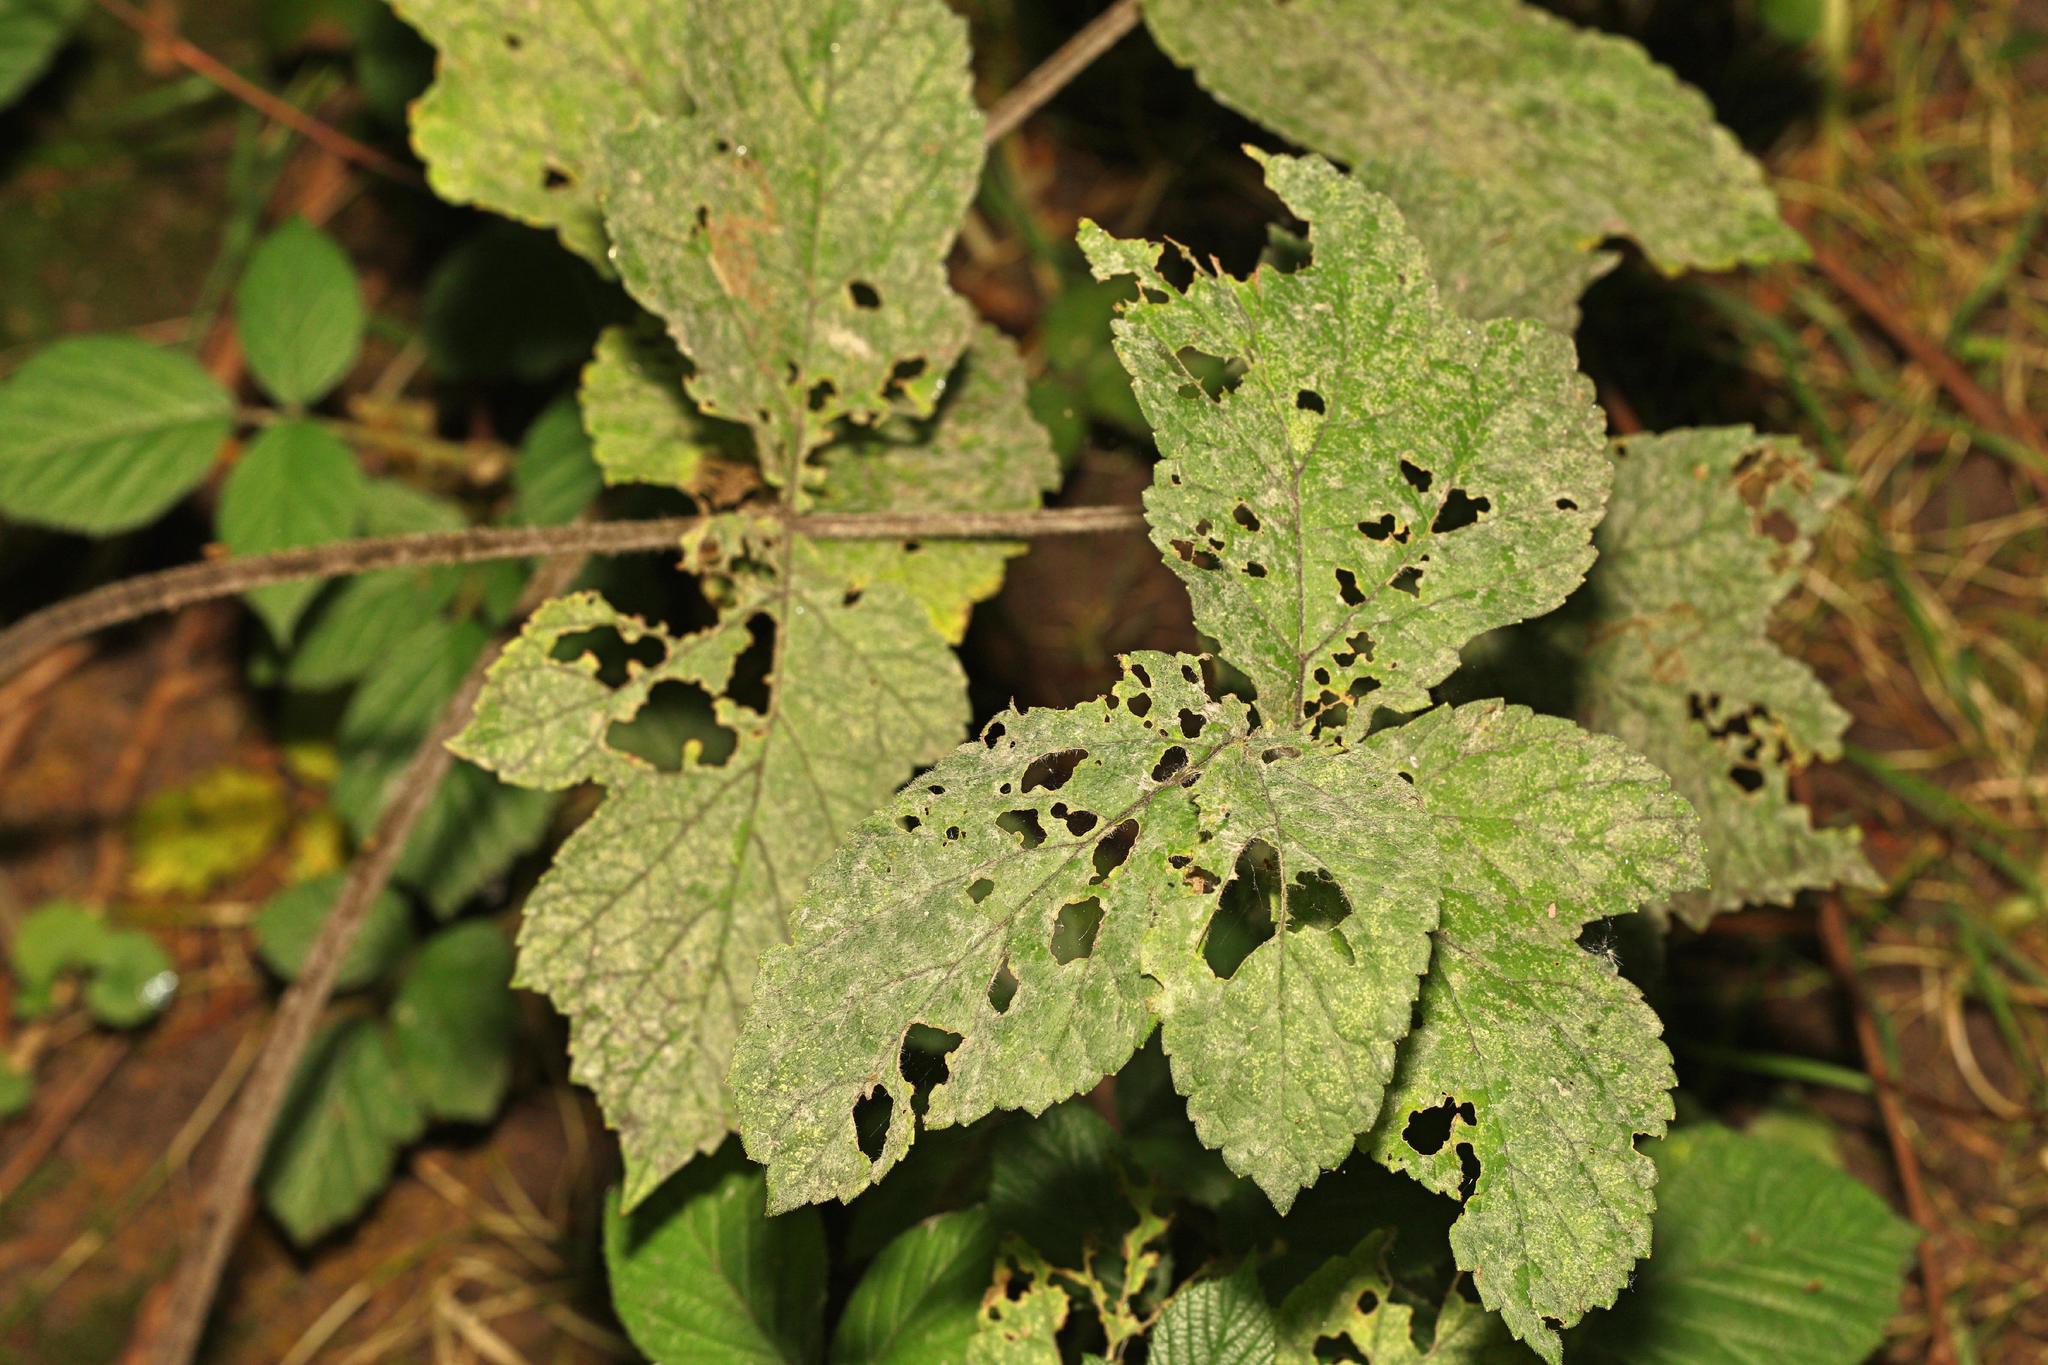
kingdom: Fungi
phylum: Ascomycota
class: Leotiomycetes
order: Helotiales
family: Erysiphaceae
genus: Erysiphe
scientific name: Erysiphe heraclei
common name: Umbellifer mildew
